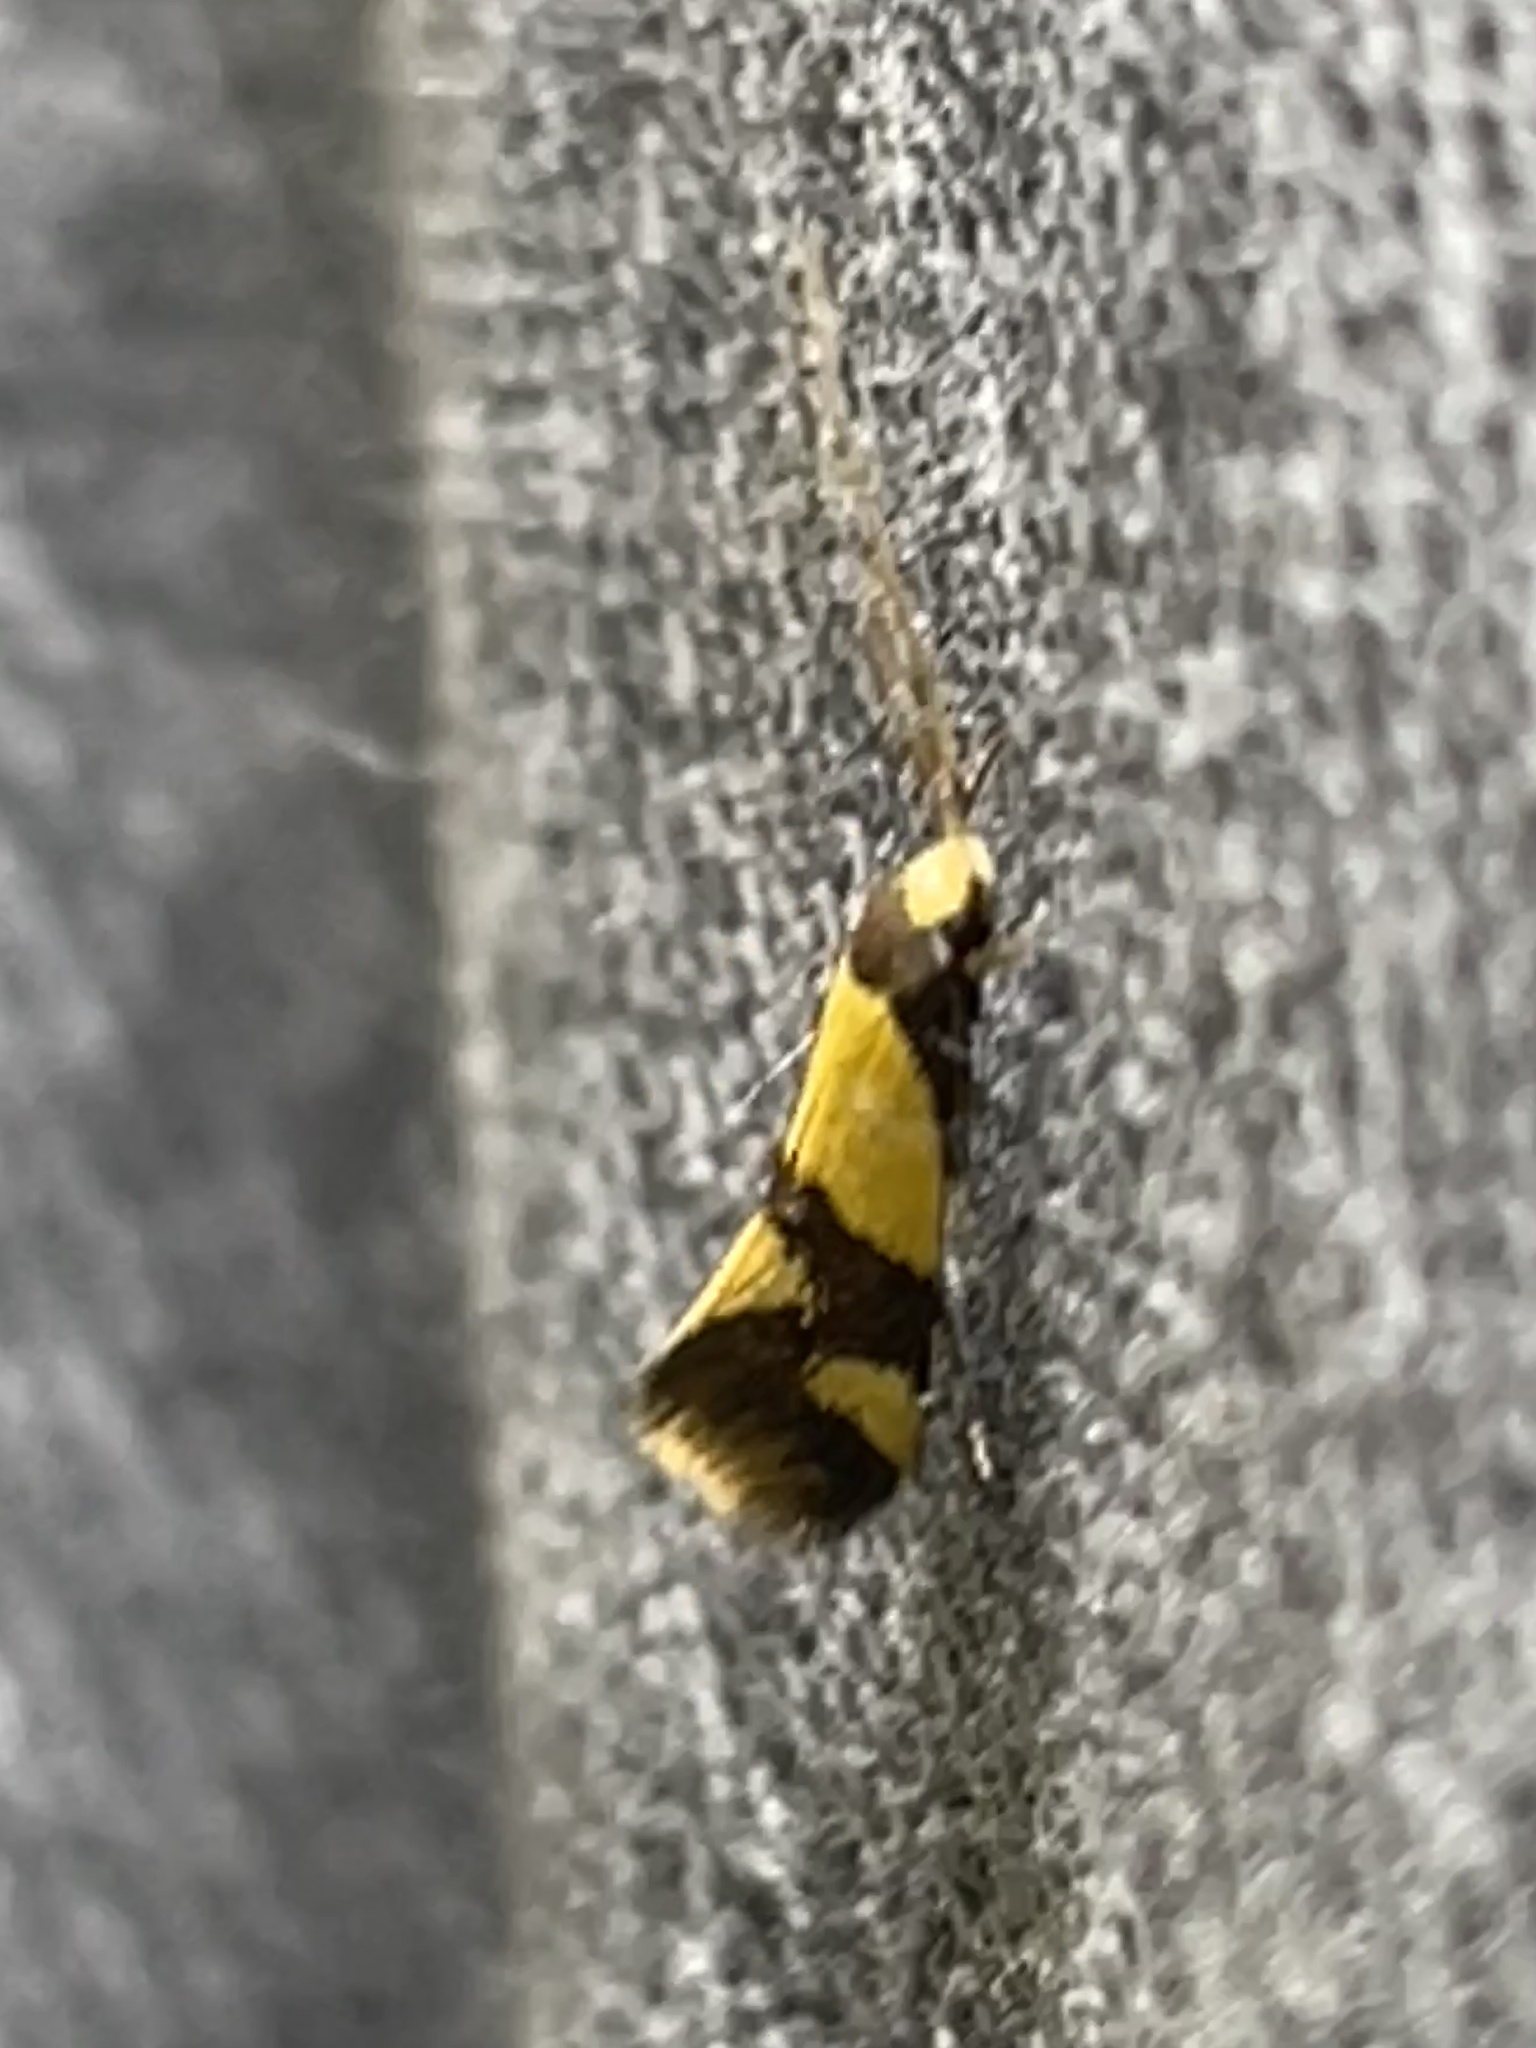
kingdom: Animalia
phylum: Arthropoda
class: Insecta
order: Lepidoptera
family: Tineidae
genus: Opogona
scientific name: Opogona comptella
